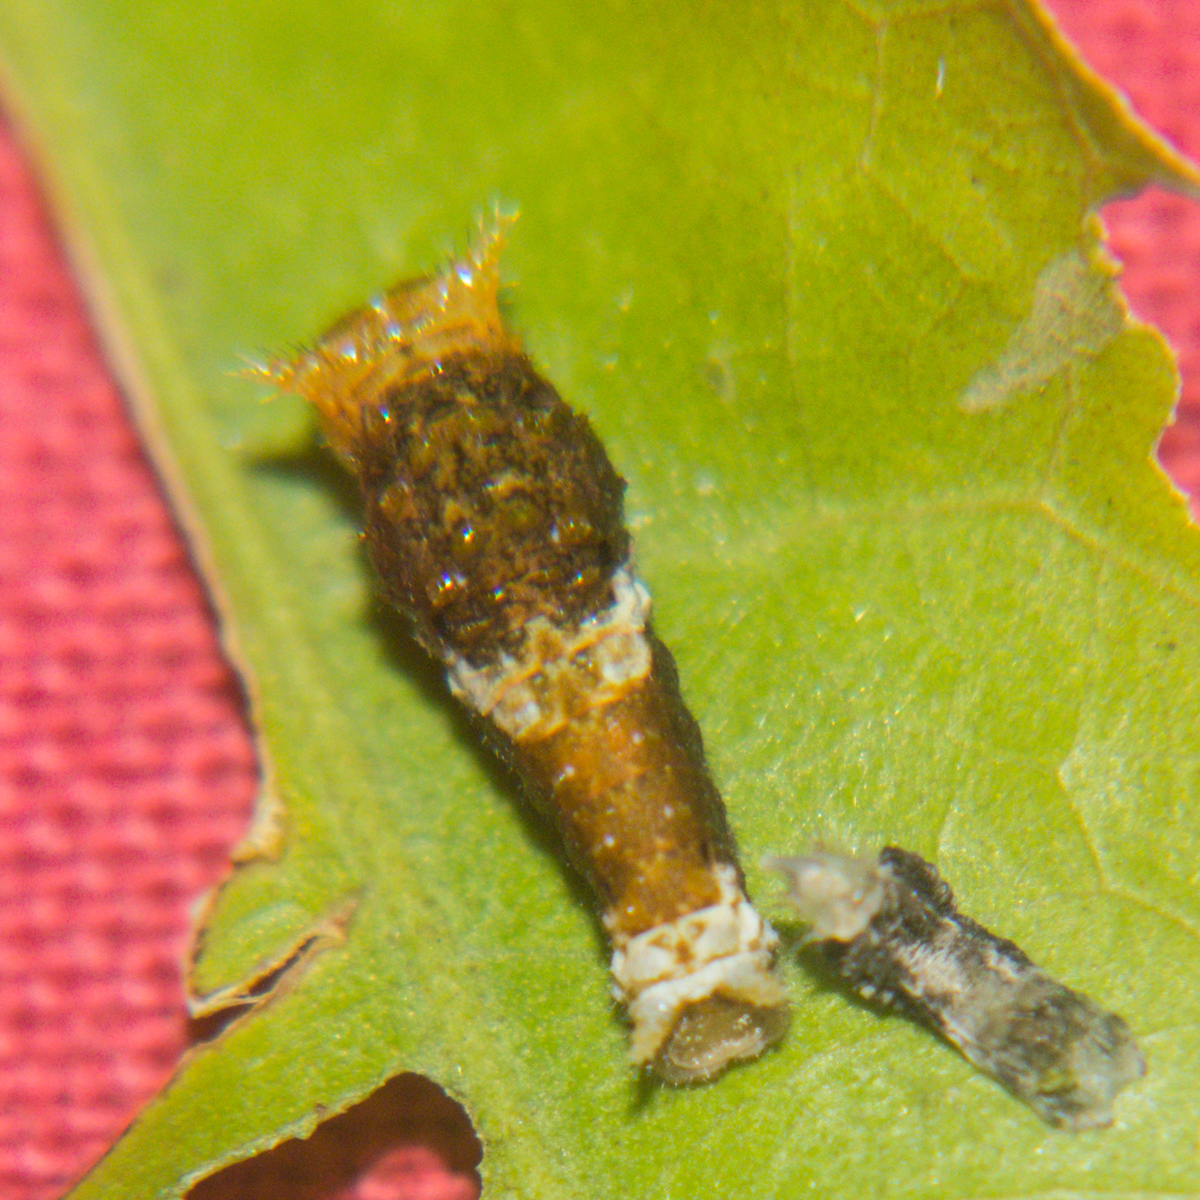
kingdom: Animalia
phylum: Arthropoda
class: Insecta
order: Lepidoptera
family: Papilionidae
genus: Papilio
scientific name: Papilio polytes
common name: Common mormon
